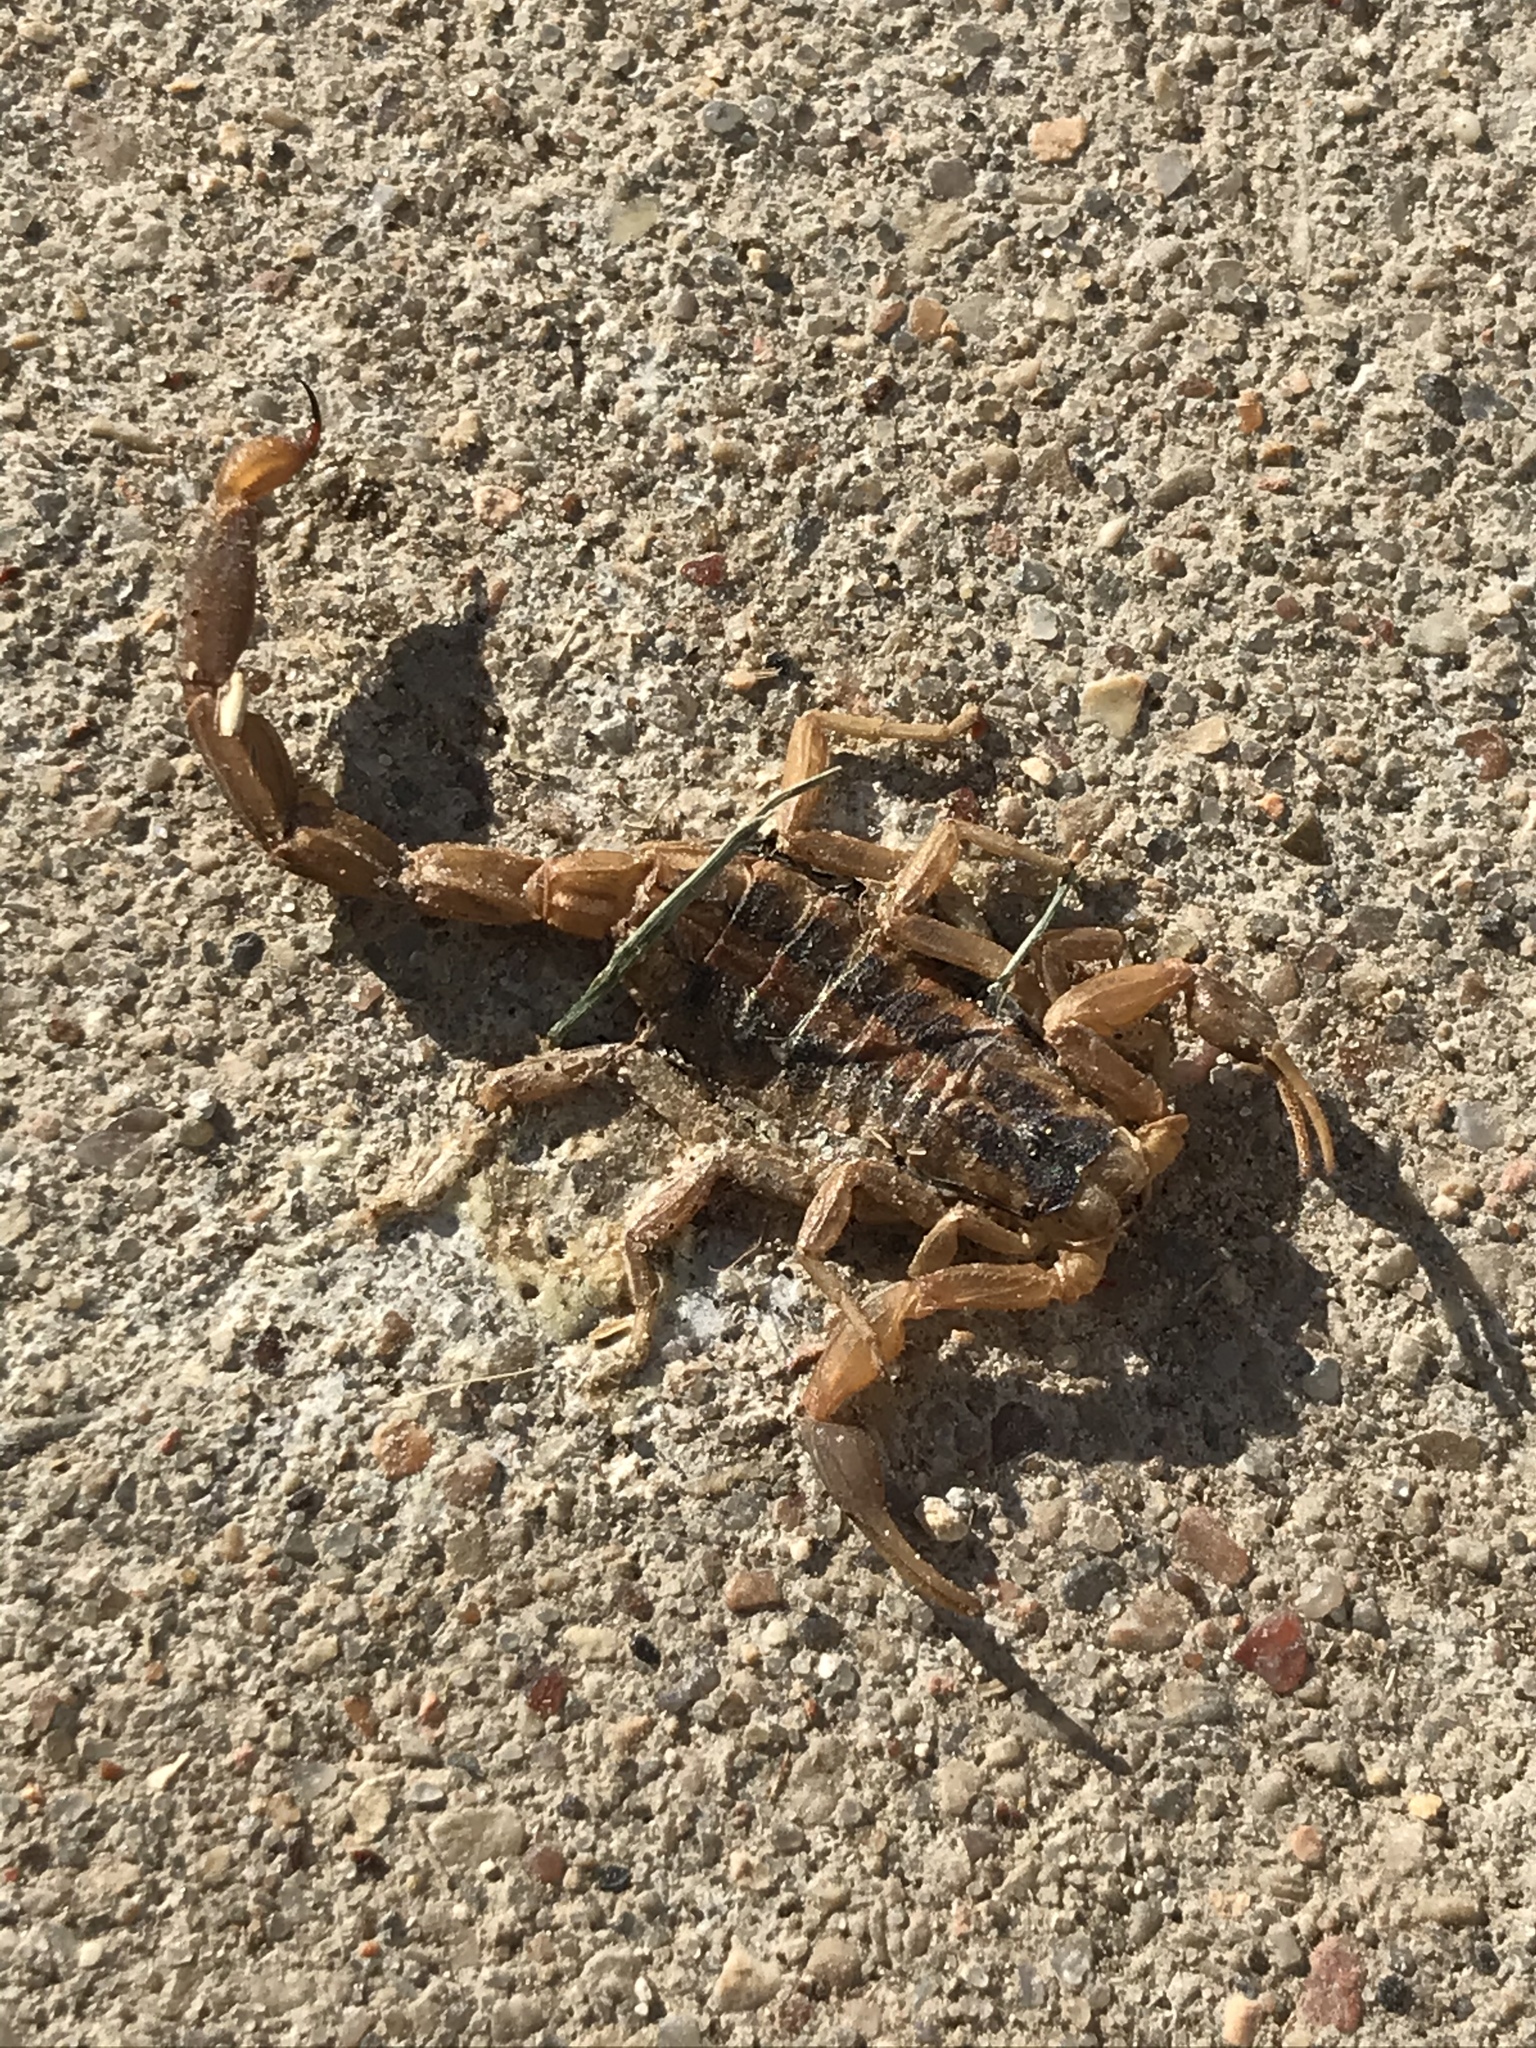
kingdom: Animalia
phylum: Arthropoda
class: Arachnida
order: Scorpiones
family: Buthidae
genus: Centruroides
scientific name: Centruroides vittatus
